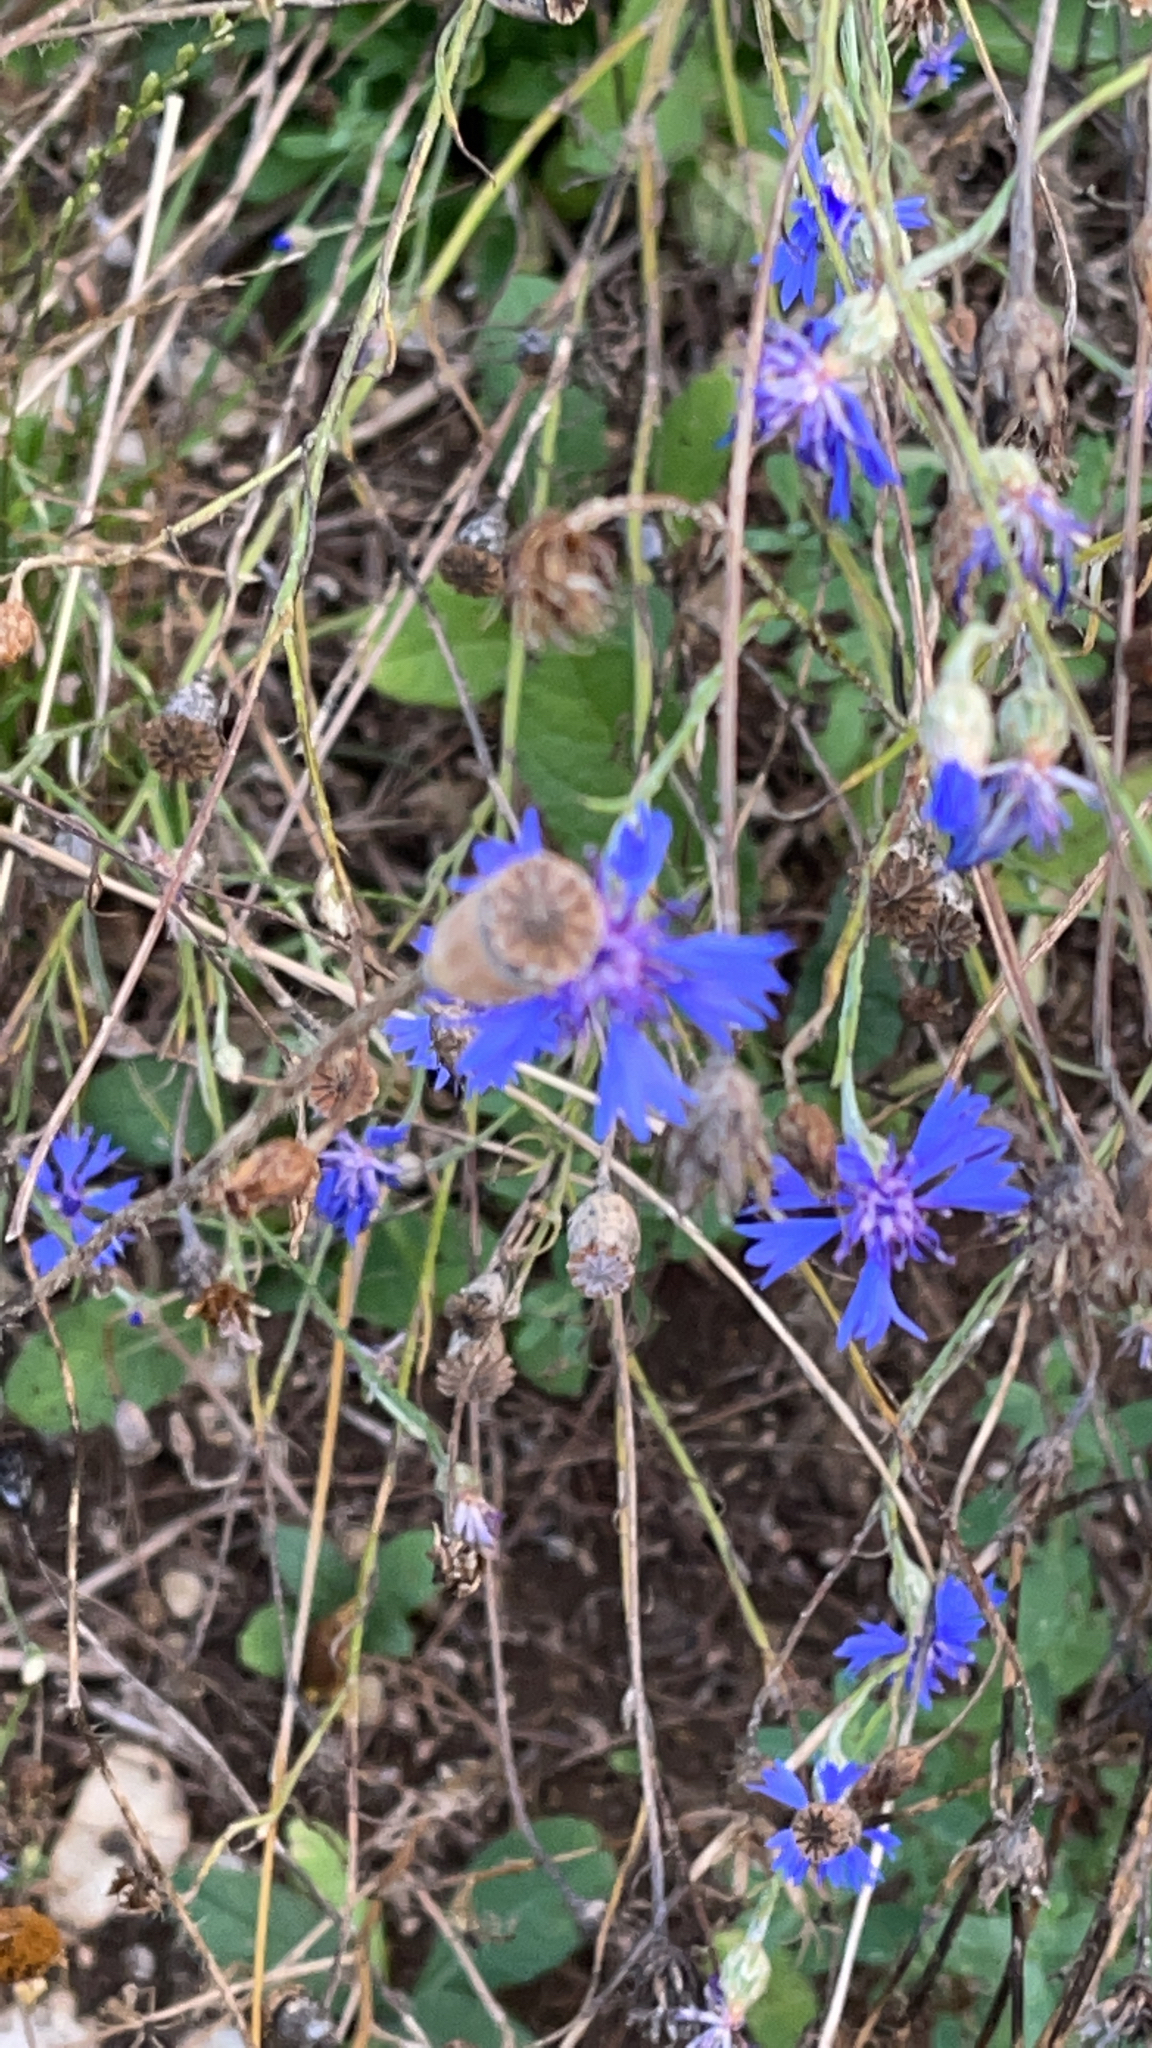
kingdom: Plantae
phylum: Tracheophyta
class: Magnoliopsida
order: Asterales
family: Asteraceae
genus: Centaurea
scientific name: Centaurea cyanus
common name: Cornflower
